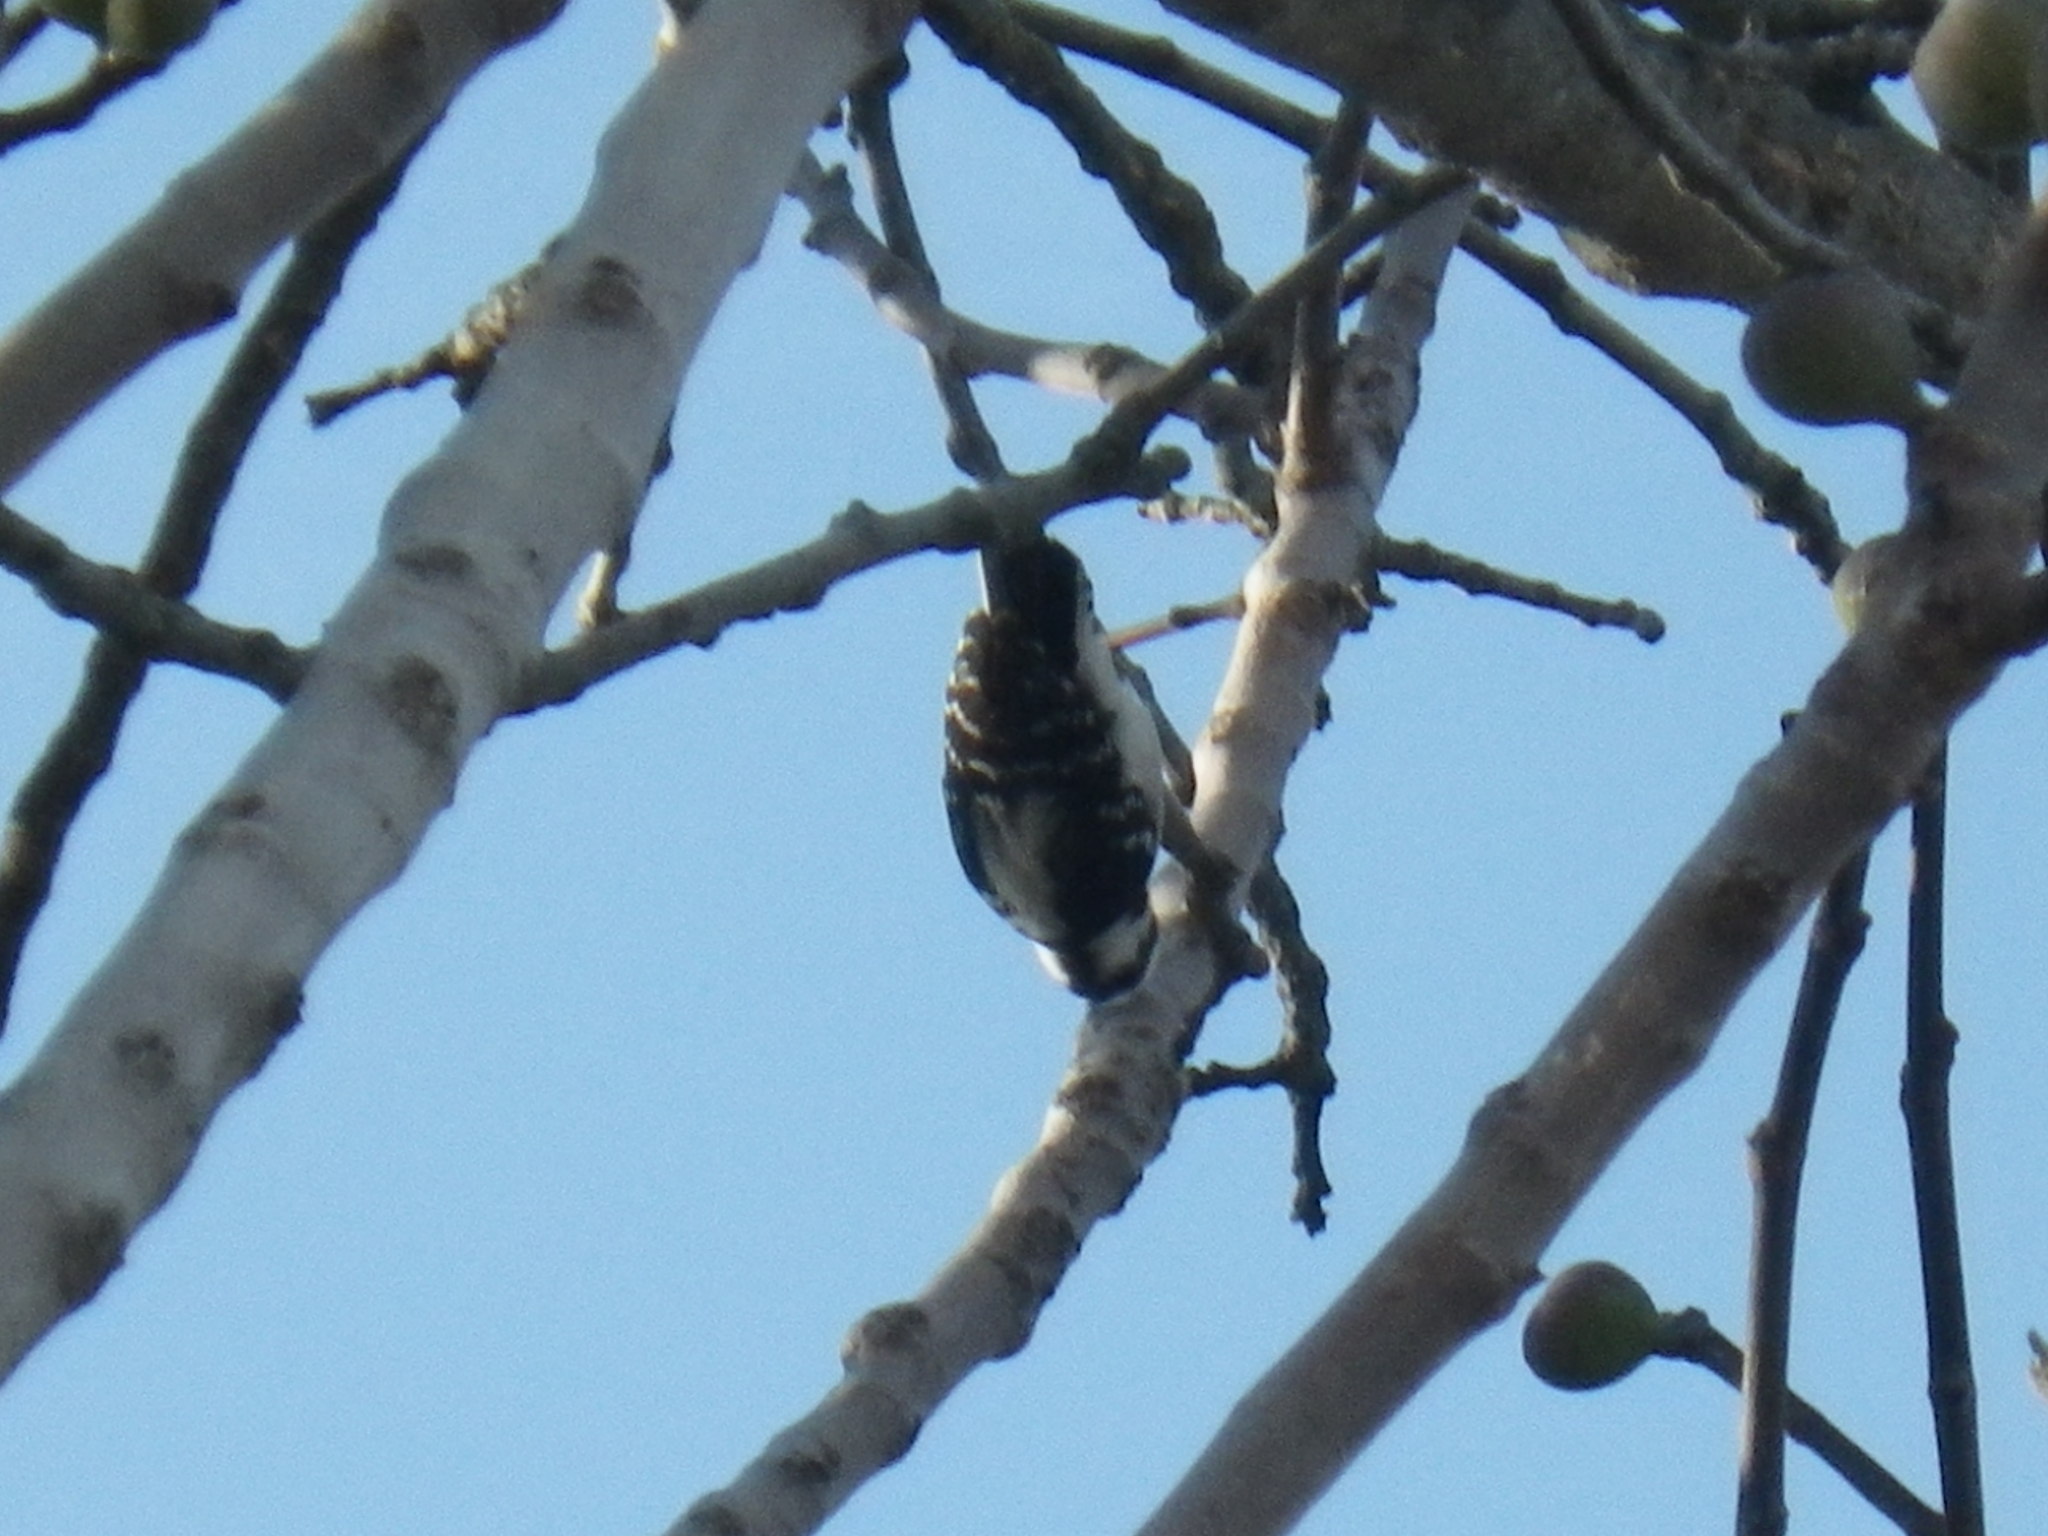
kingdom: Animalia
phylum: Chordata
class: Aves
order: Piciformes
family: Picidae
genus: Dryobates
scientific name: Dryobates pubescens
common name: Downy woodpecker
